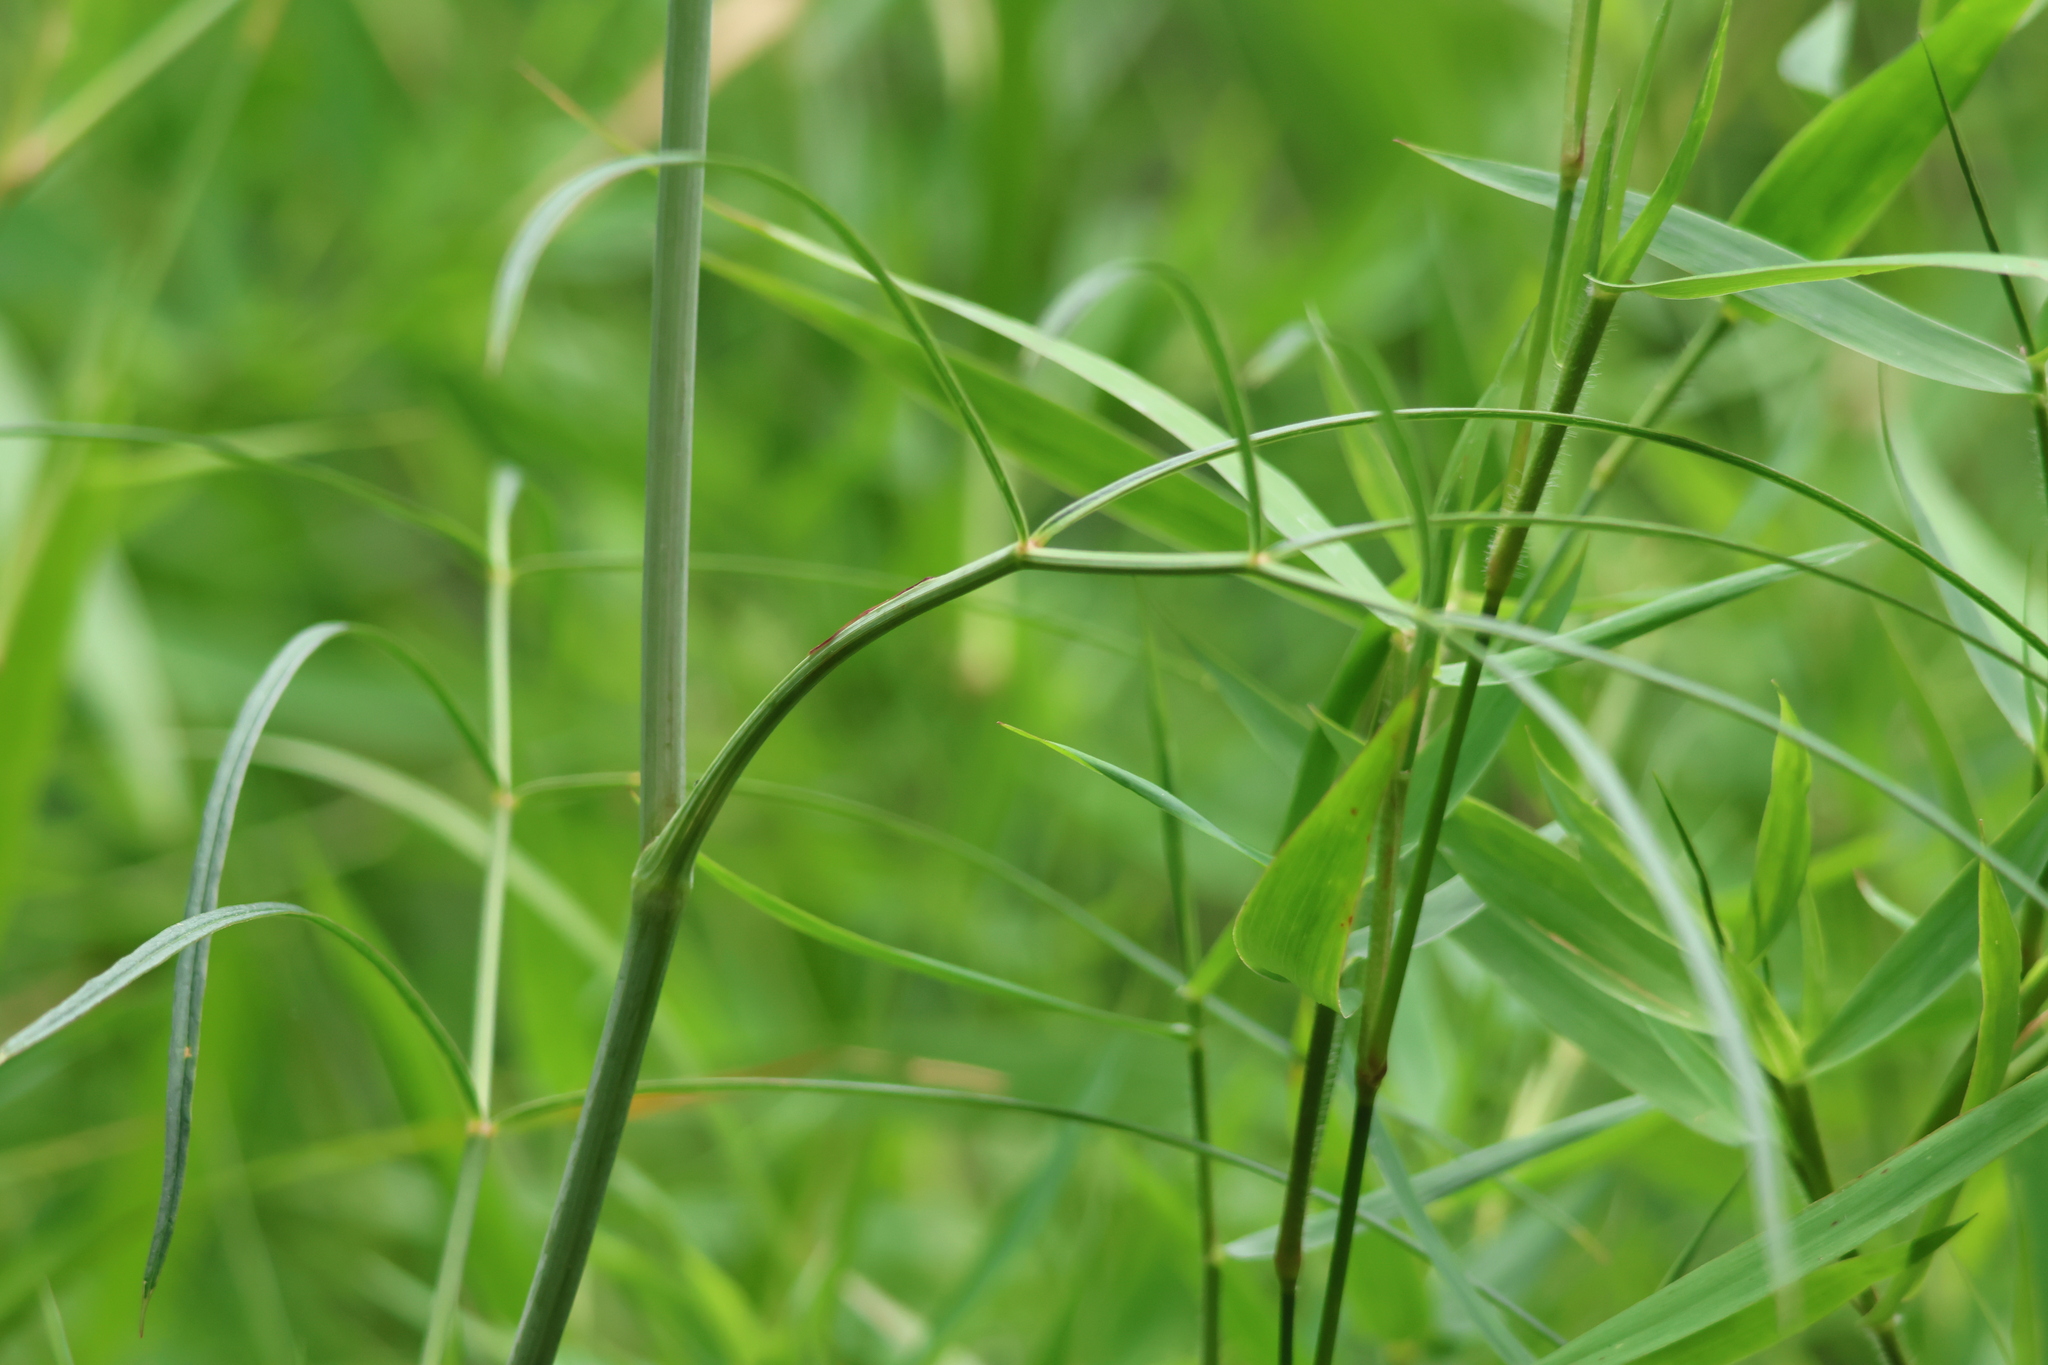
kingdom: Plantae
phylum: Tracheophyta
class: Magnoliopsida
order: Apiales
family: Apiaceae
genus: Oxypolis
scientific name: Oxypolis rigidior
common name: Cowbane
